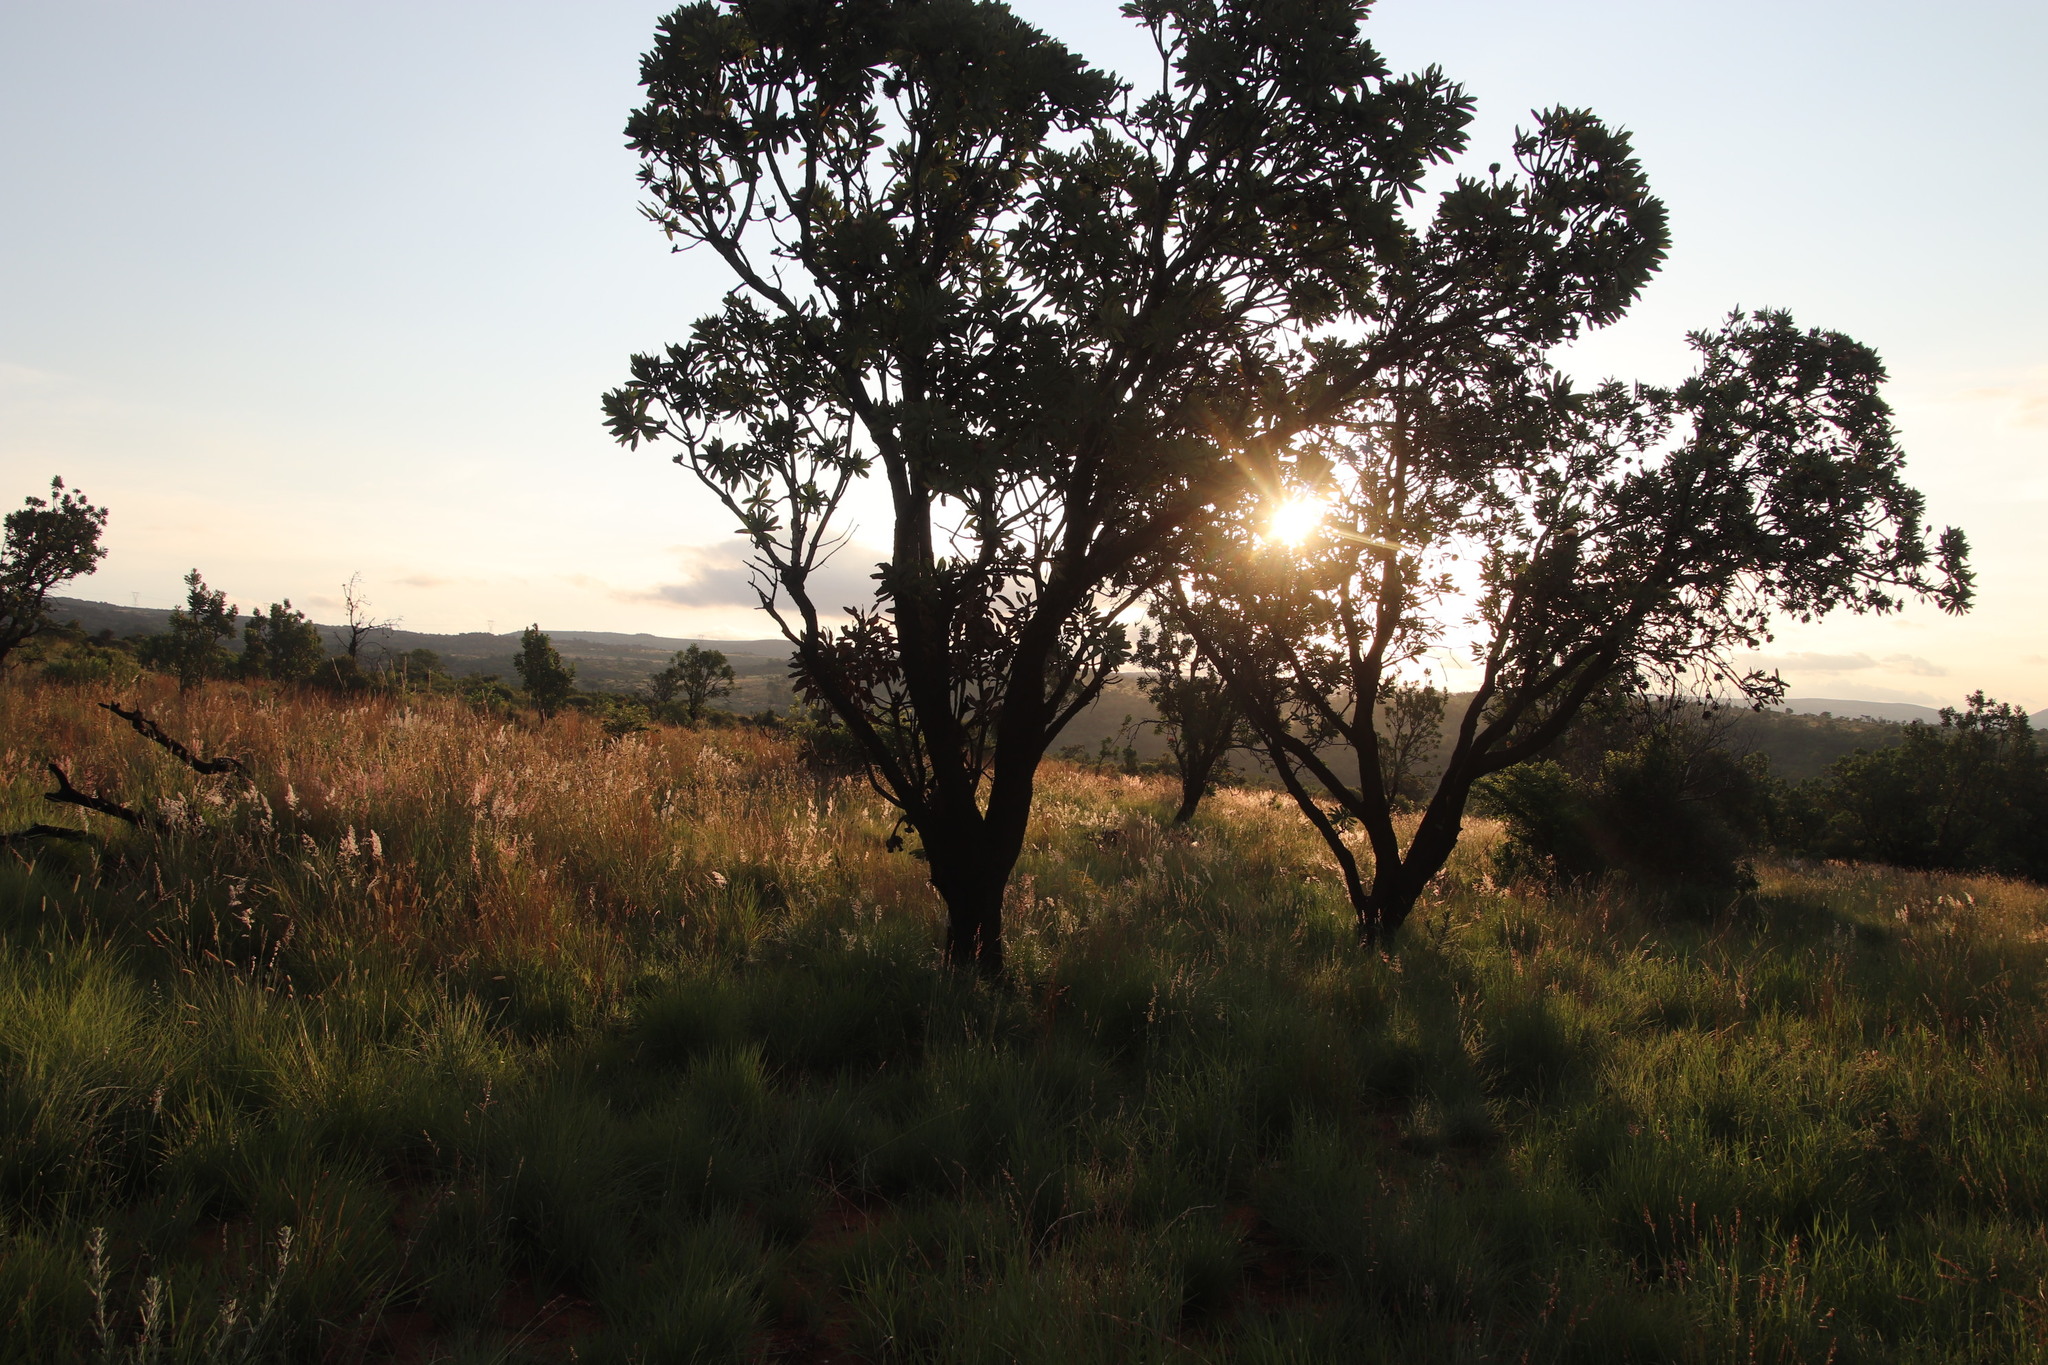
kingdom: Plantae
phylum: Tracheophyta
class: Magnoliopsida
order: Proteales
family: Proteaceae
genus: Protea
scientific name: Protea caffra
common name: Common sugarbush
